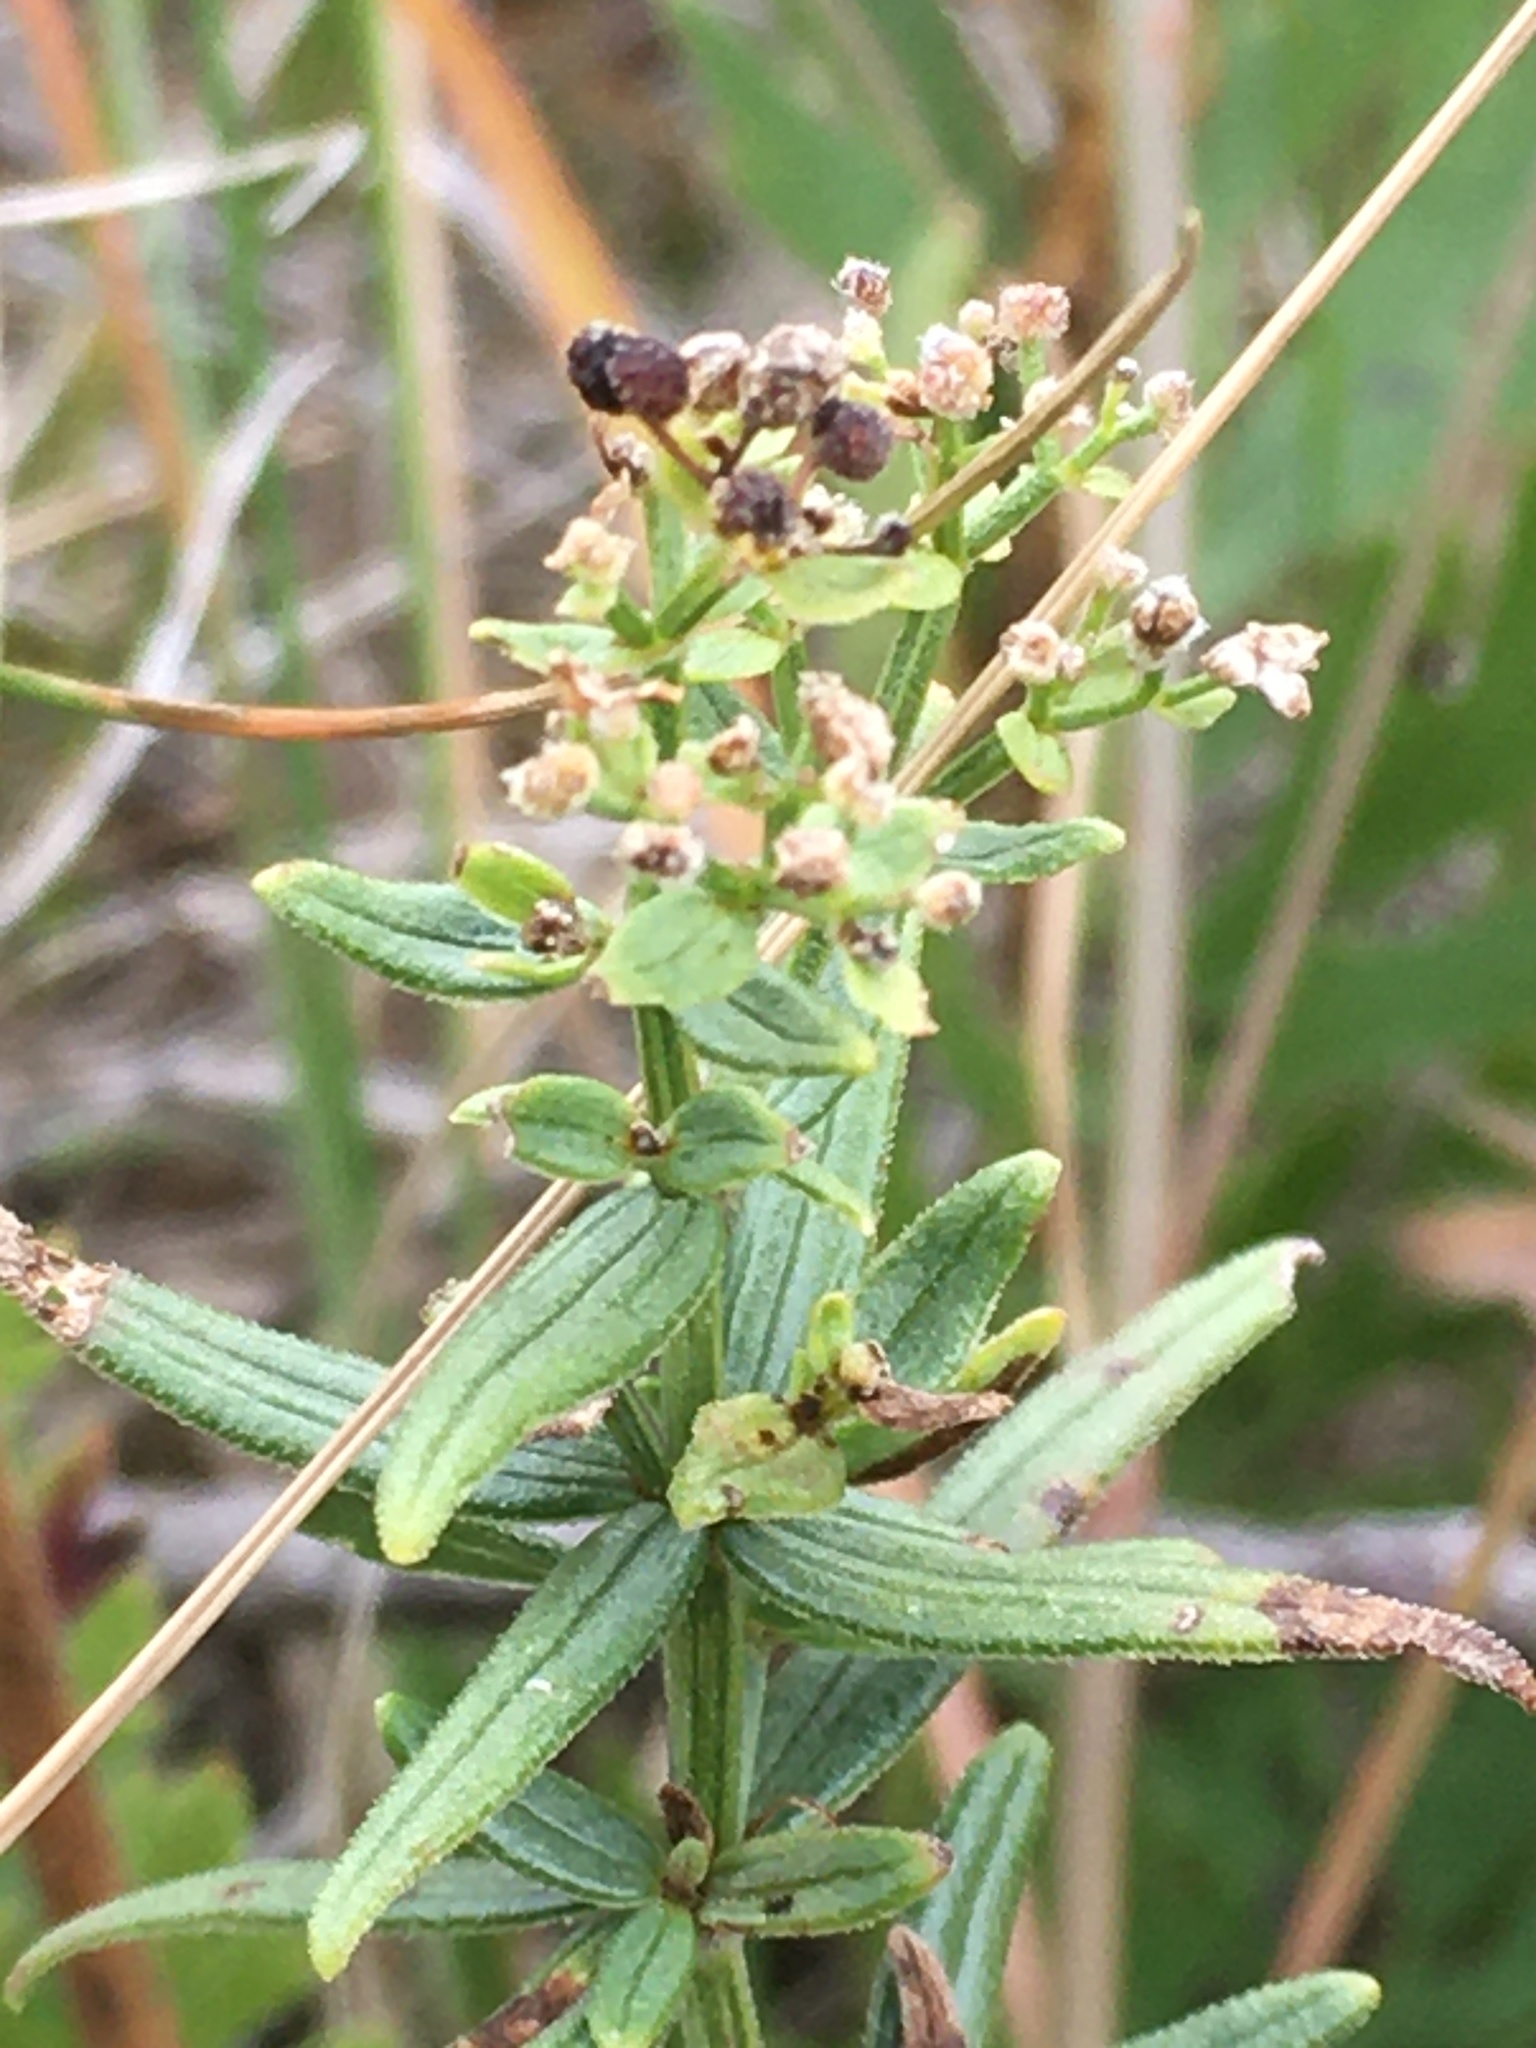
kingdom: Plantae
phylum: Tracheophyta
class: Magnoliopsida
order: Gentianales
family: Rubiaceae
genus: Galium
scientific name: Galium boreale
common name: Northern bedstraw
